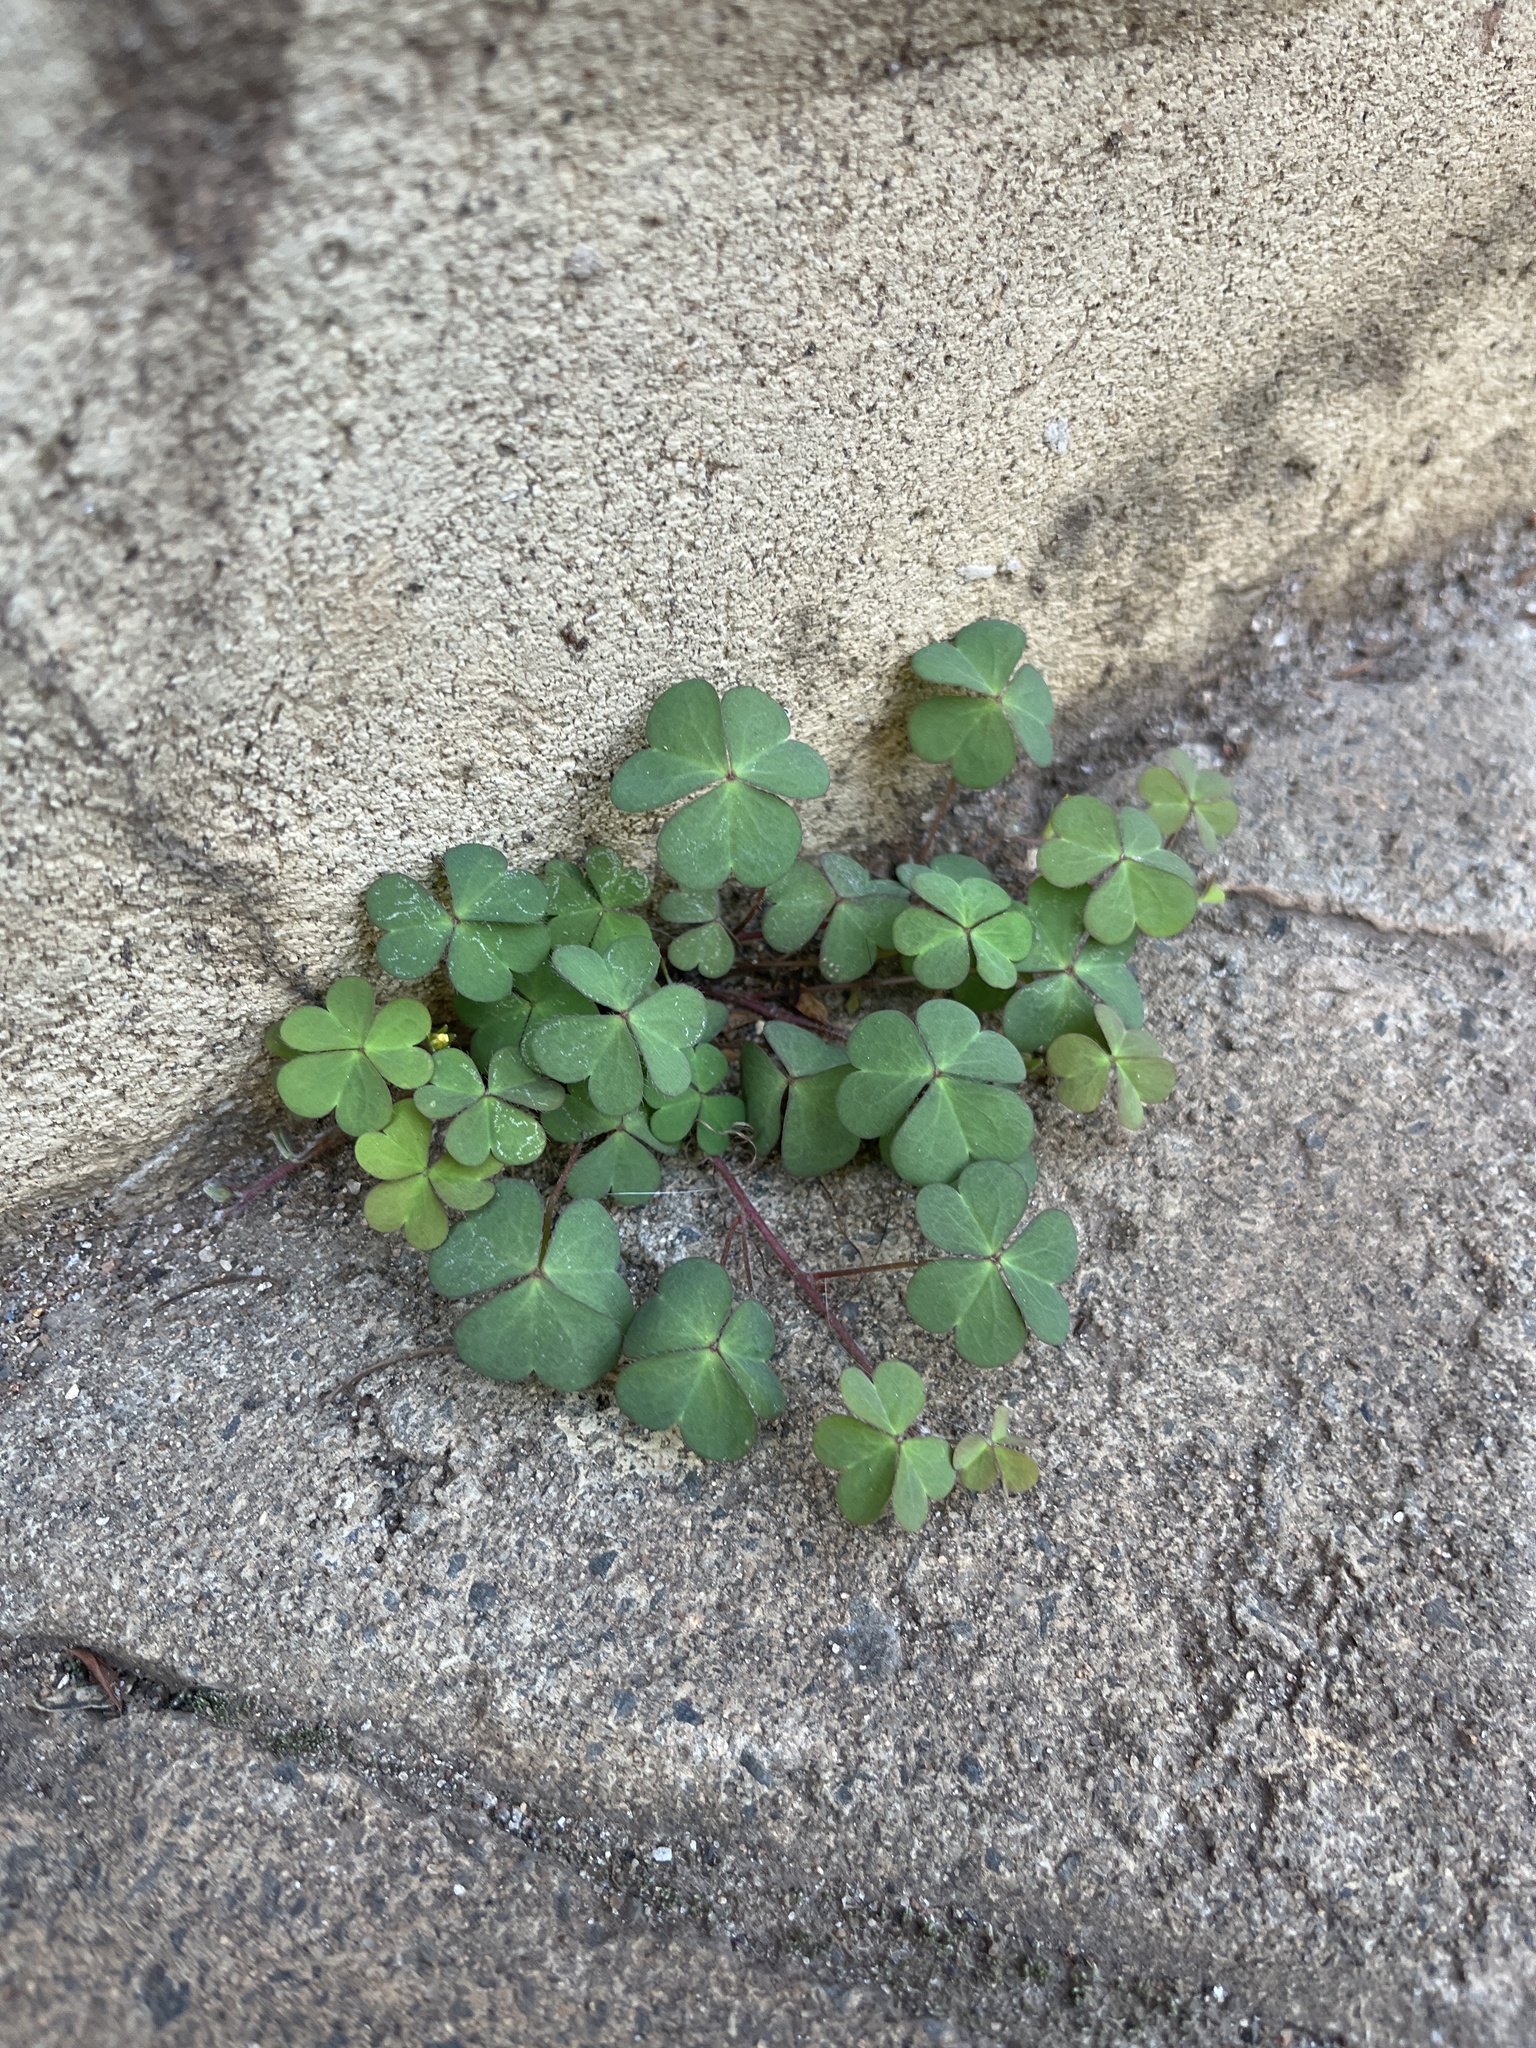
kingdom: Plantae
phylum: Tracheophyta
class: Magnoliopsida
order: Oxalidales
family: Oxalidaceae
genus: Oxalis
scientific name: Oxalis corniculata
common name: Procumbent yellow-sorrel
